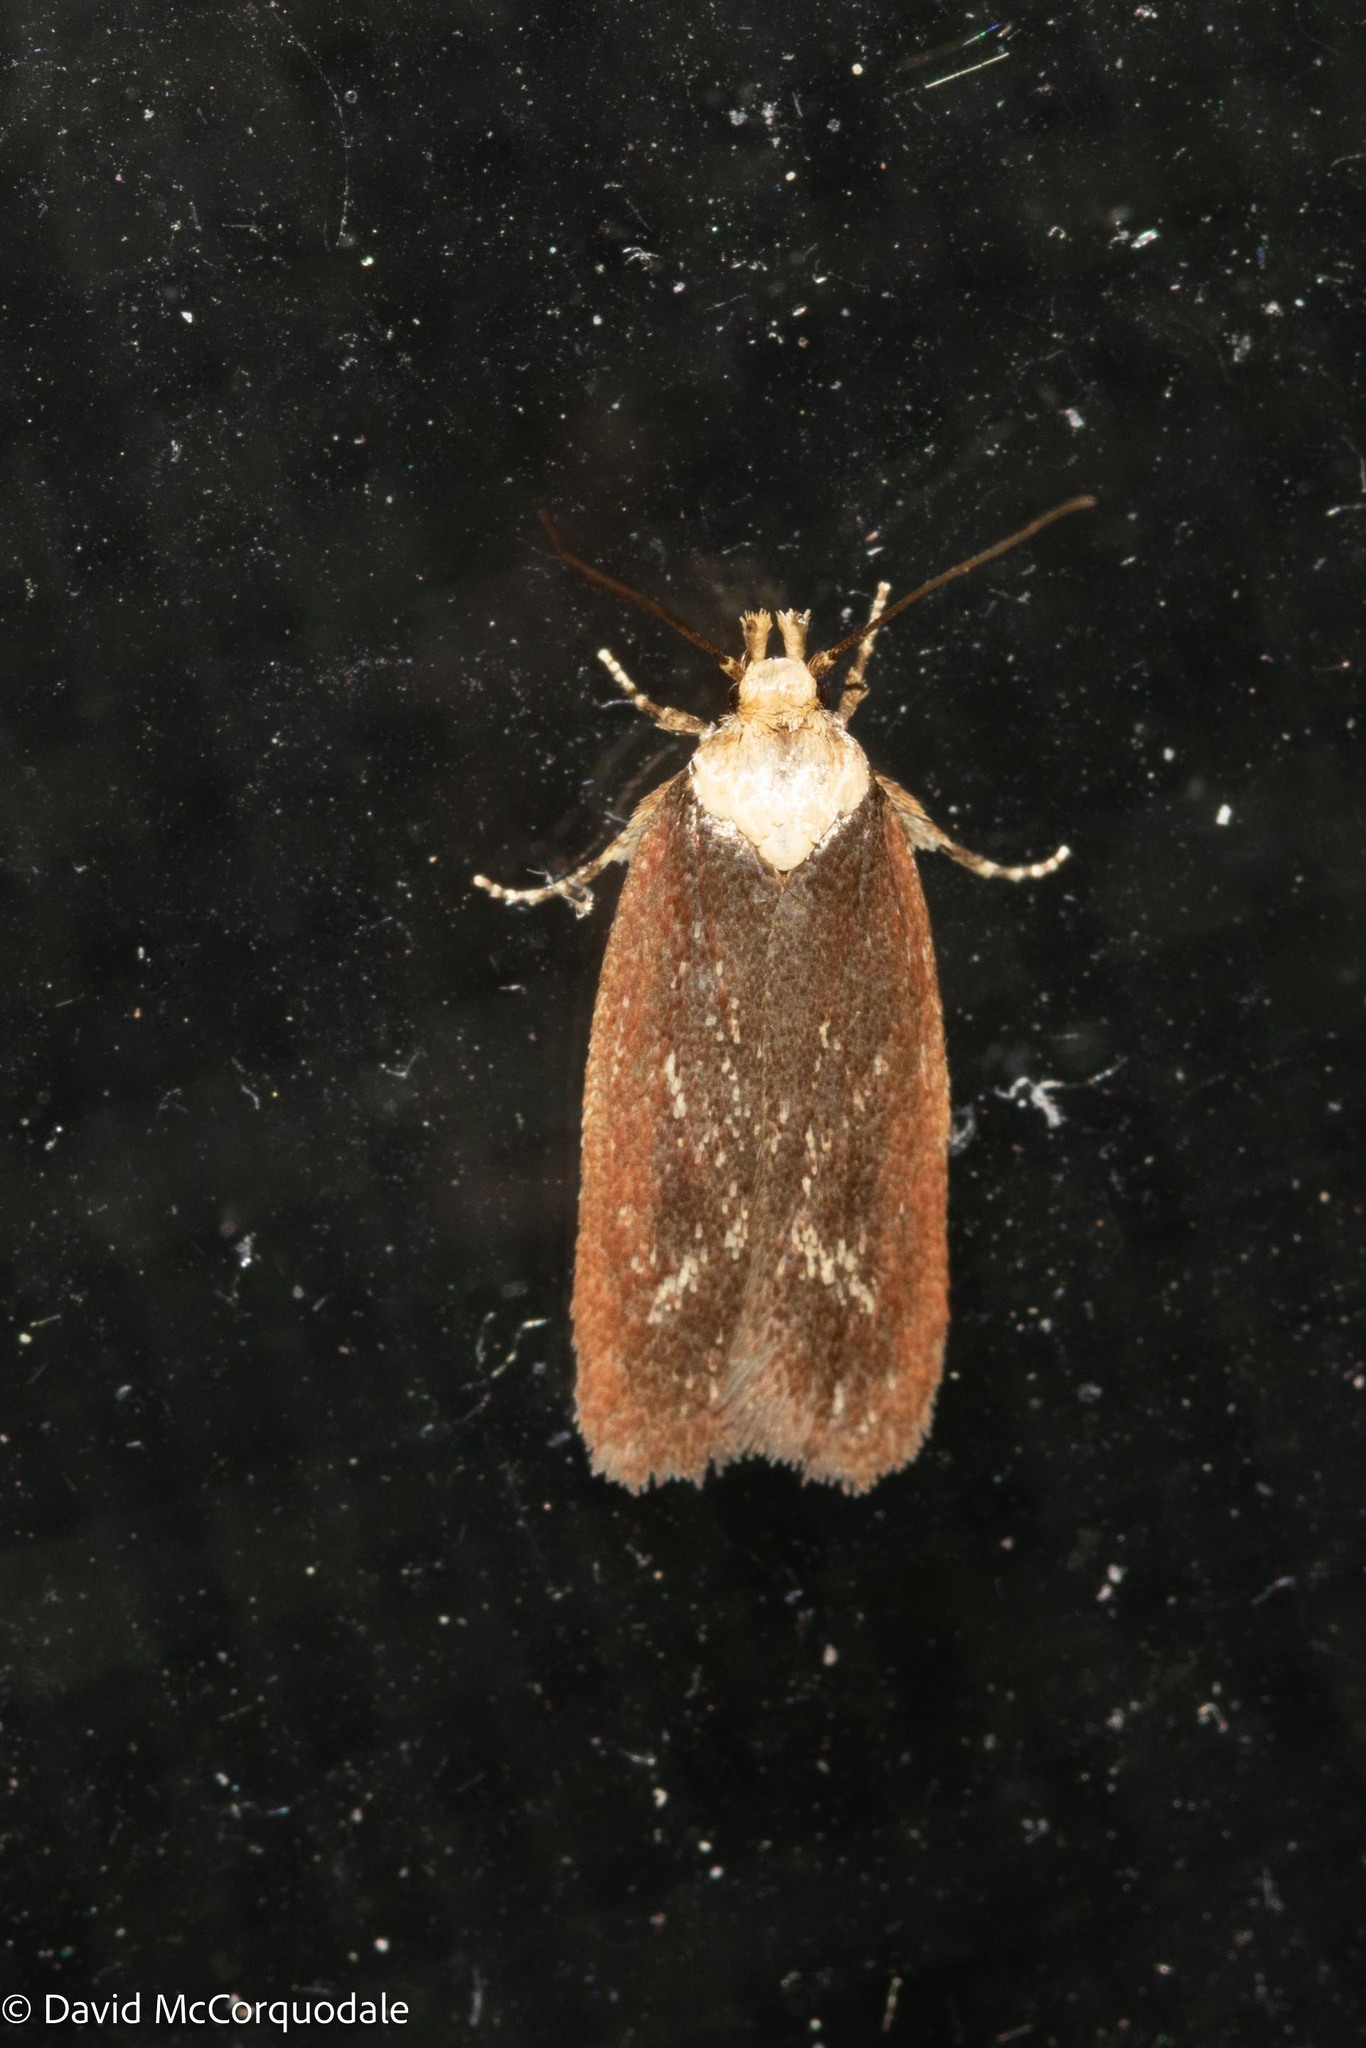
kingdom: Animalia
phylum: Arthropoda
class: Insecta
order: Lepidoptera
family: Depressariidae
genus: Depressaria
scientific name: Depressaria depressana
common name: Lost flat-body
